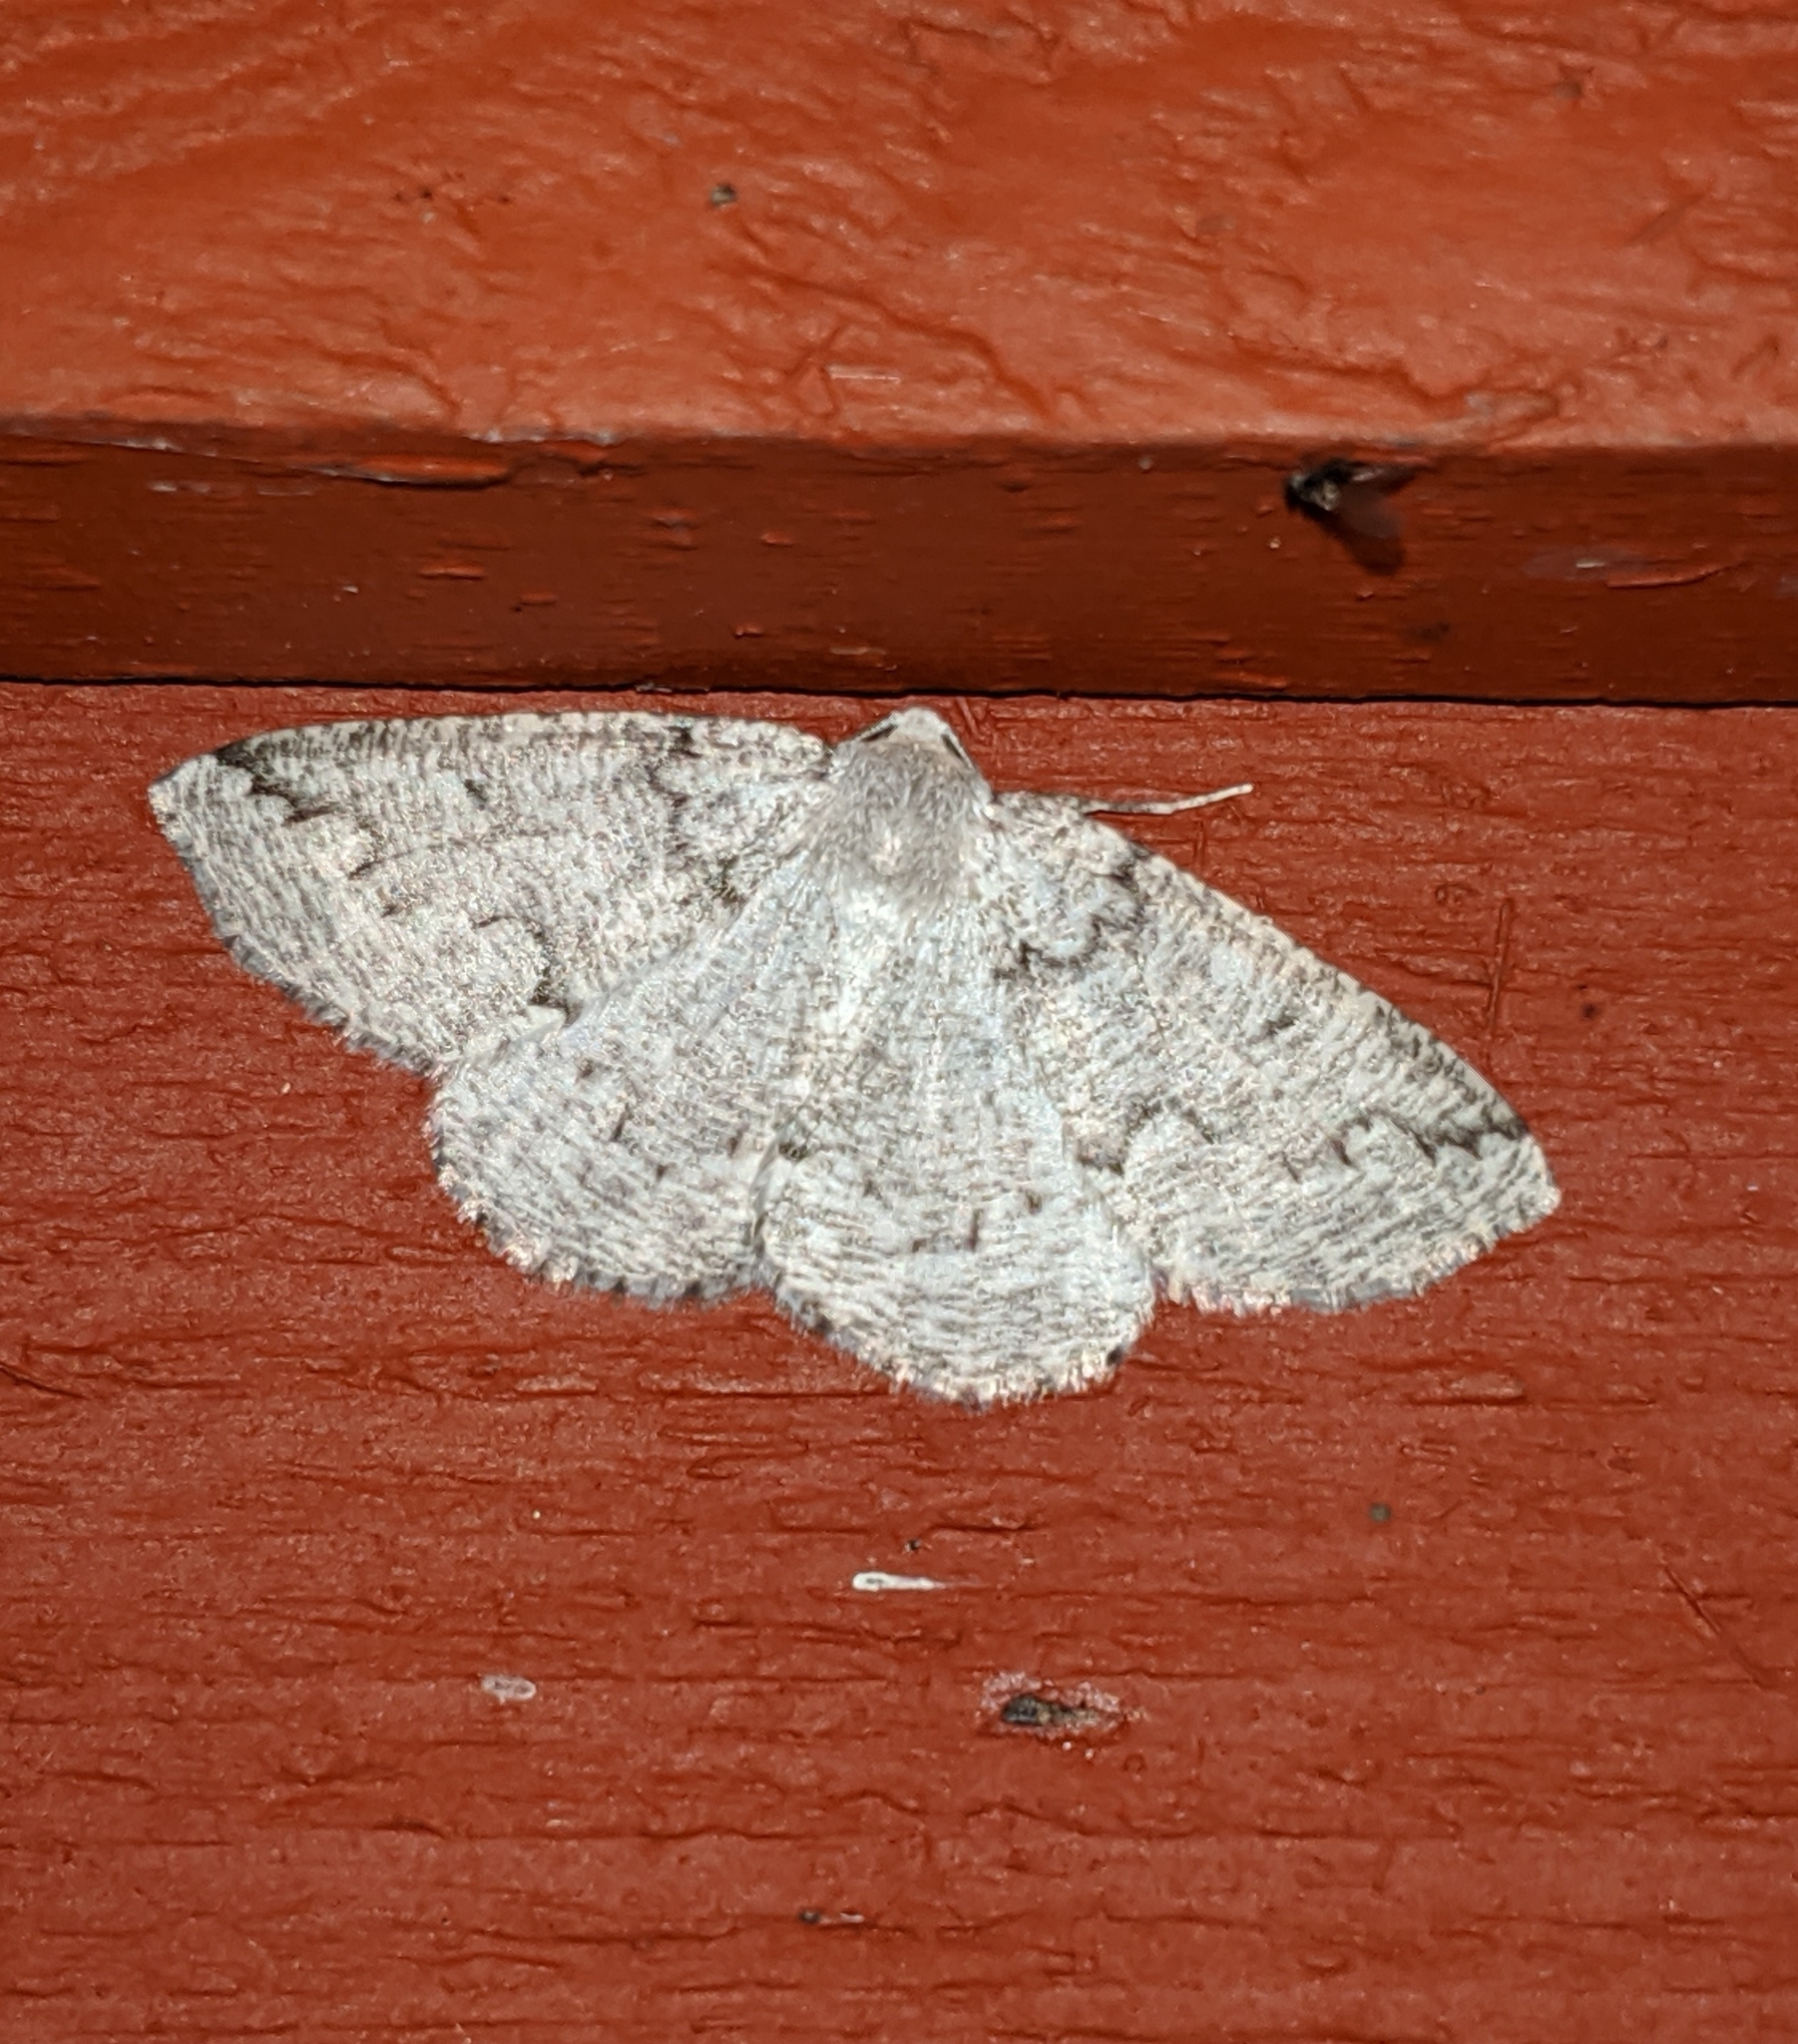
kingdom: Animalia
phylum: Arthropoda
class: Insecta
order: Lepidoptera
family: Geometridae
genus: Sabulodes
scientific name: Sabulodes
